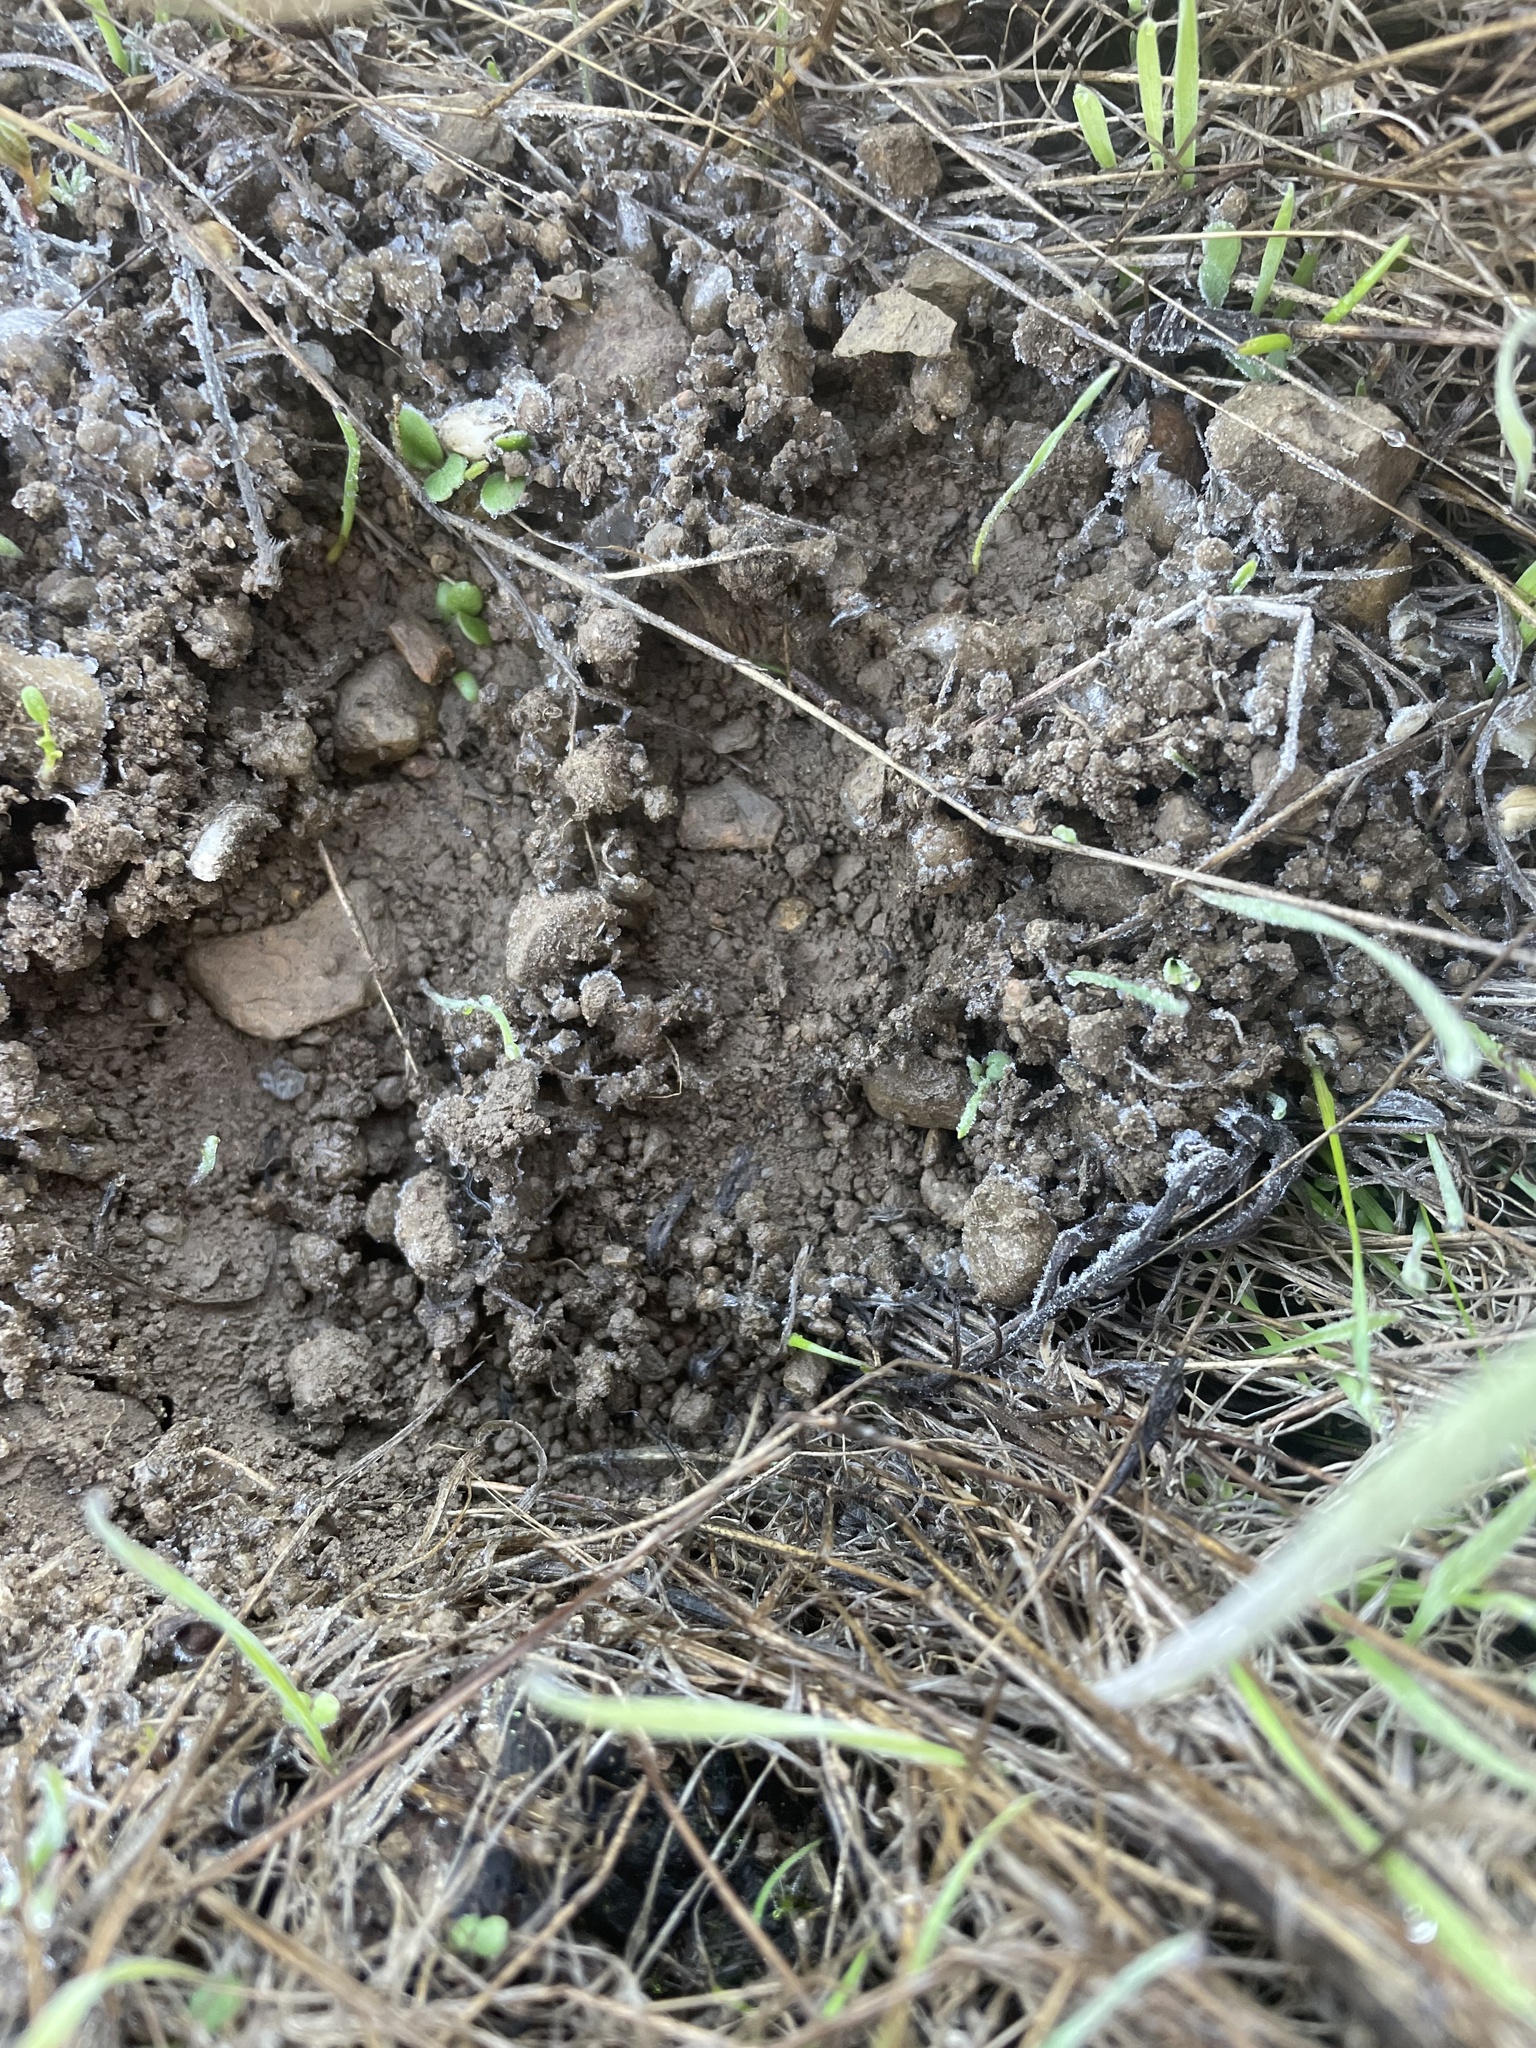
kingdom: Animalia
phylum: Chordata
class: Mammalia
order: Artiodactyla
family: Cervidae
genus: Odocoileus
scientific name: Odocoileus hemionus
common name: Mule deer
